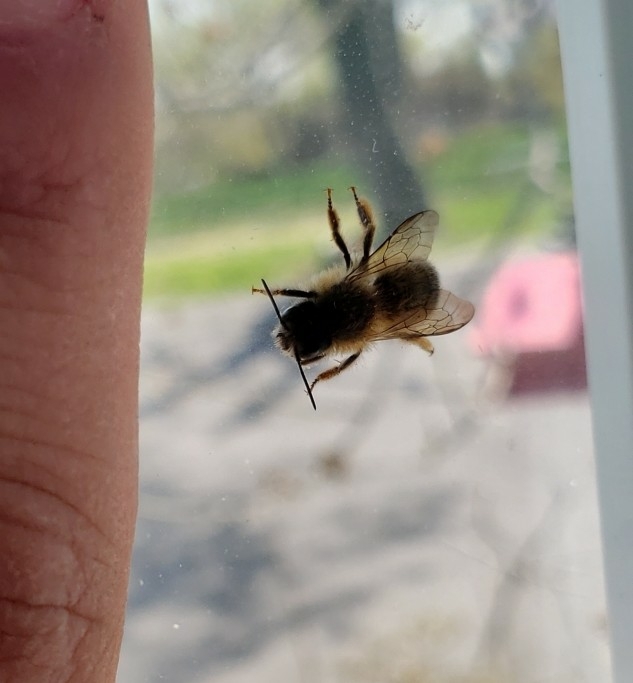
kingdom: Animalia
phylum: Arthropoda
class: Insecta
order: Hymenoptera
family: Megachilidae
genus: Osmia
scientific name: Osmia cornifrons
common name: Horn-faced bee
